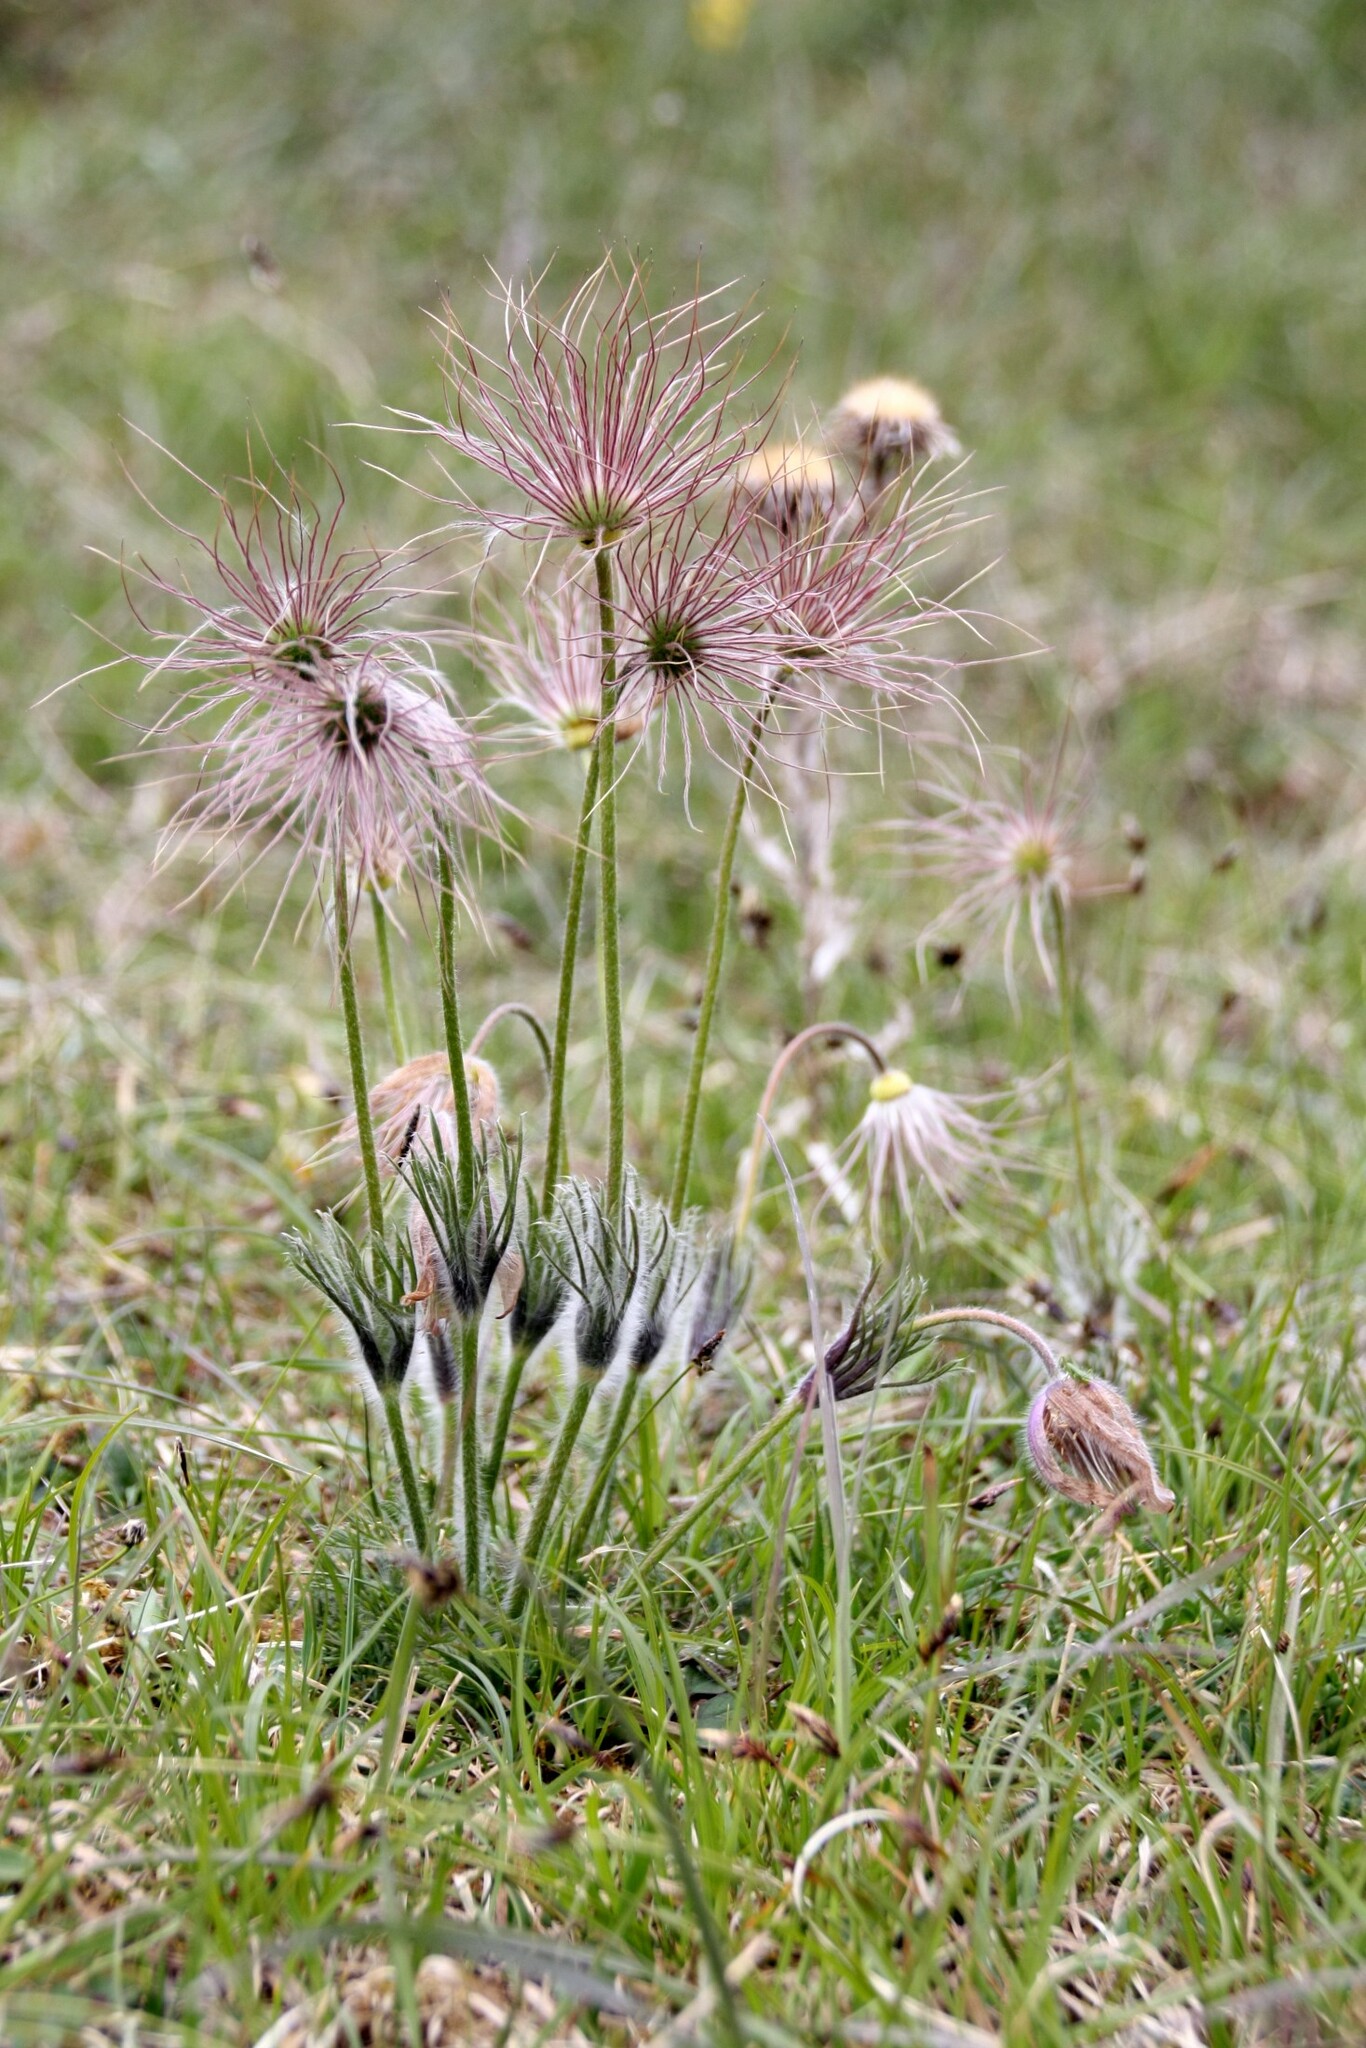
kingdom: Plantae
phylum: Tracheophyta
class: Magnoliopsida
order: Ranunculales
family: Ranunculaceae
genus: Pulsatilla
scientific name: Pulsatilla vulgaris
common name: Pasqueflower
